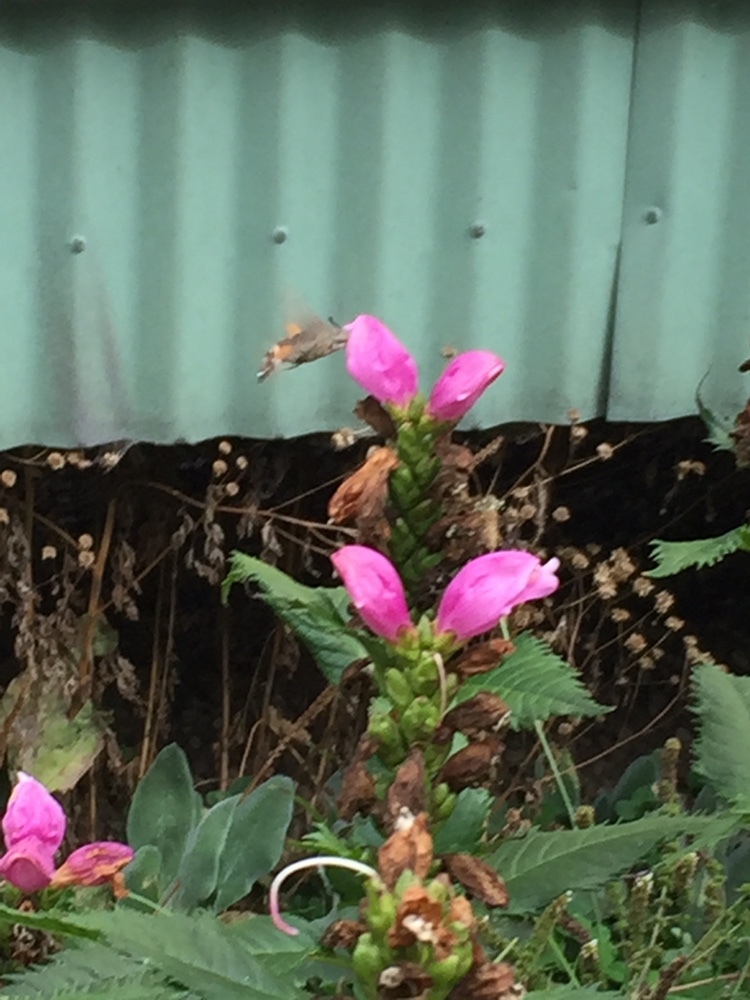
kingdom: Animalia
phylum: Arthropoda
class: Insecta
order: Lepidoptera
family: Sphingidae
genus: Macroglossum
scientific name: Macroglossum stellatarum
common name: Humming-bird hawk-moth
